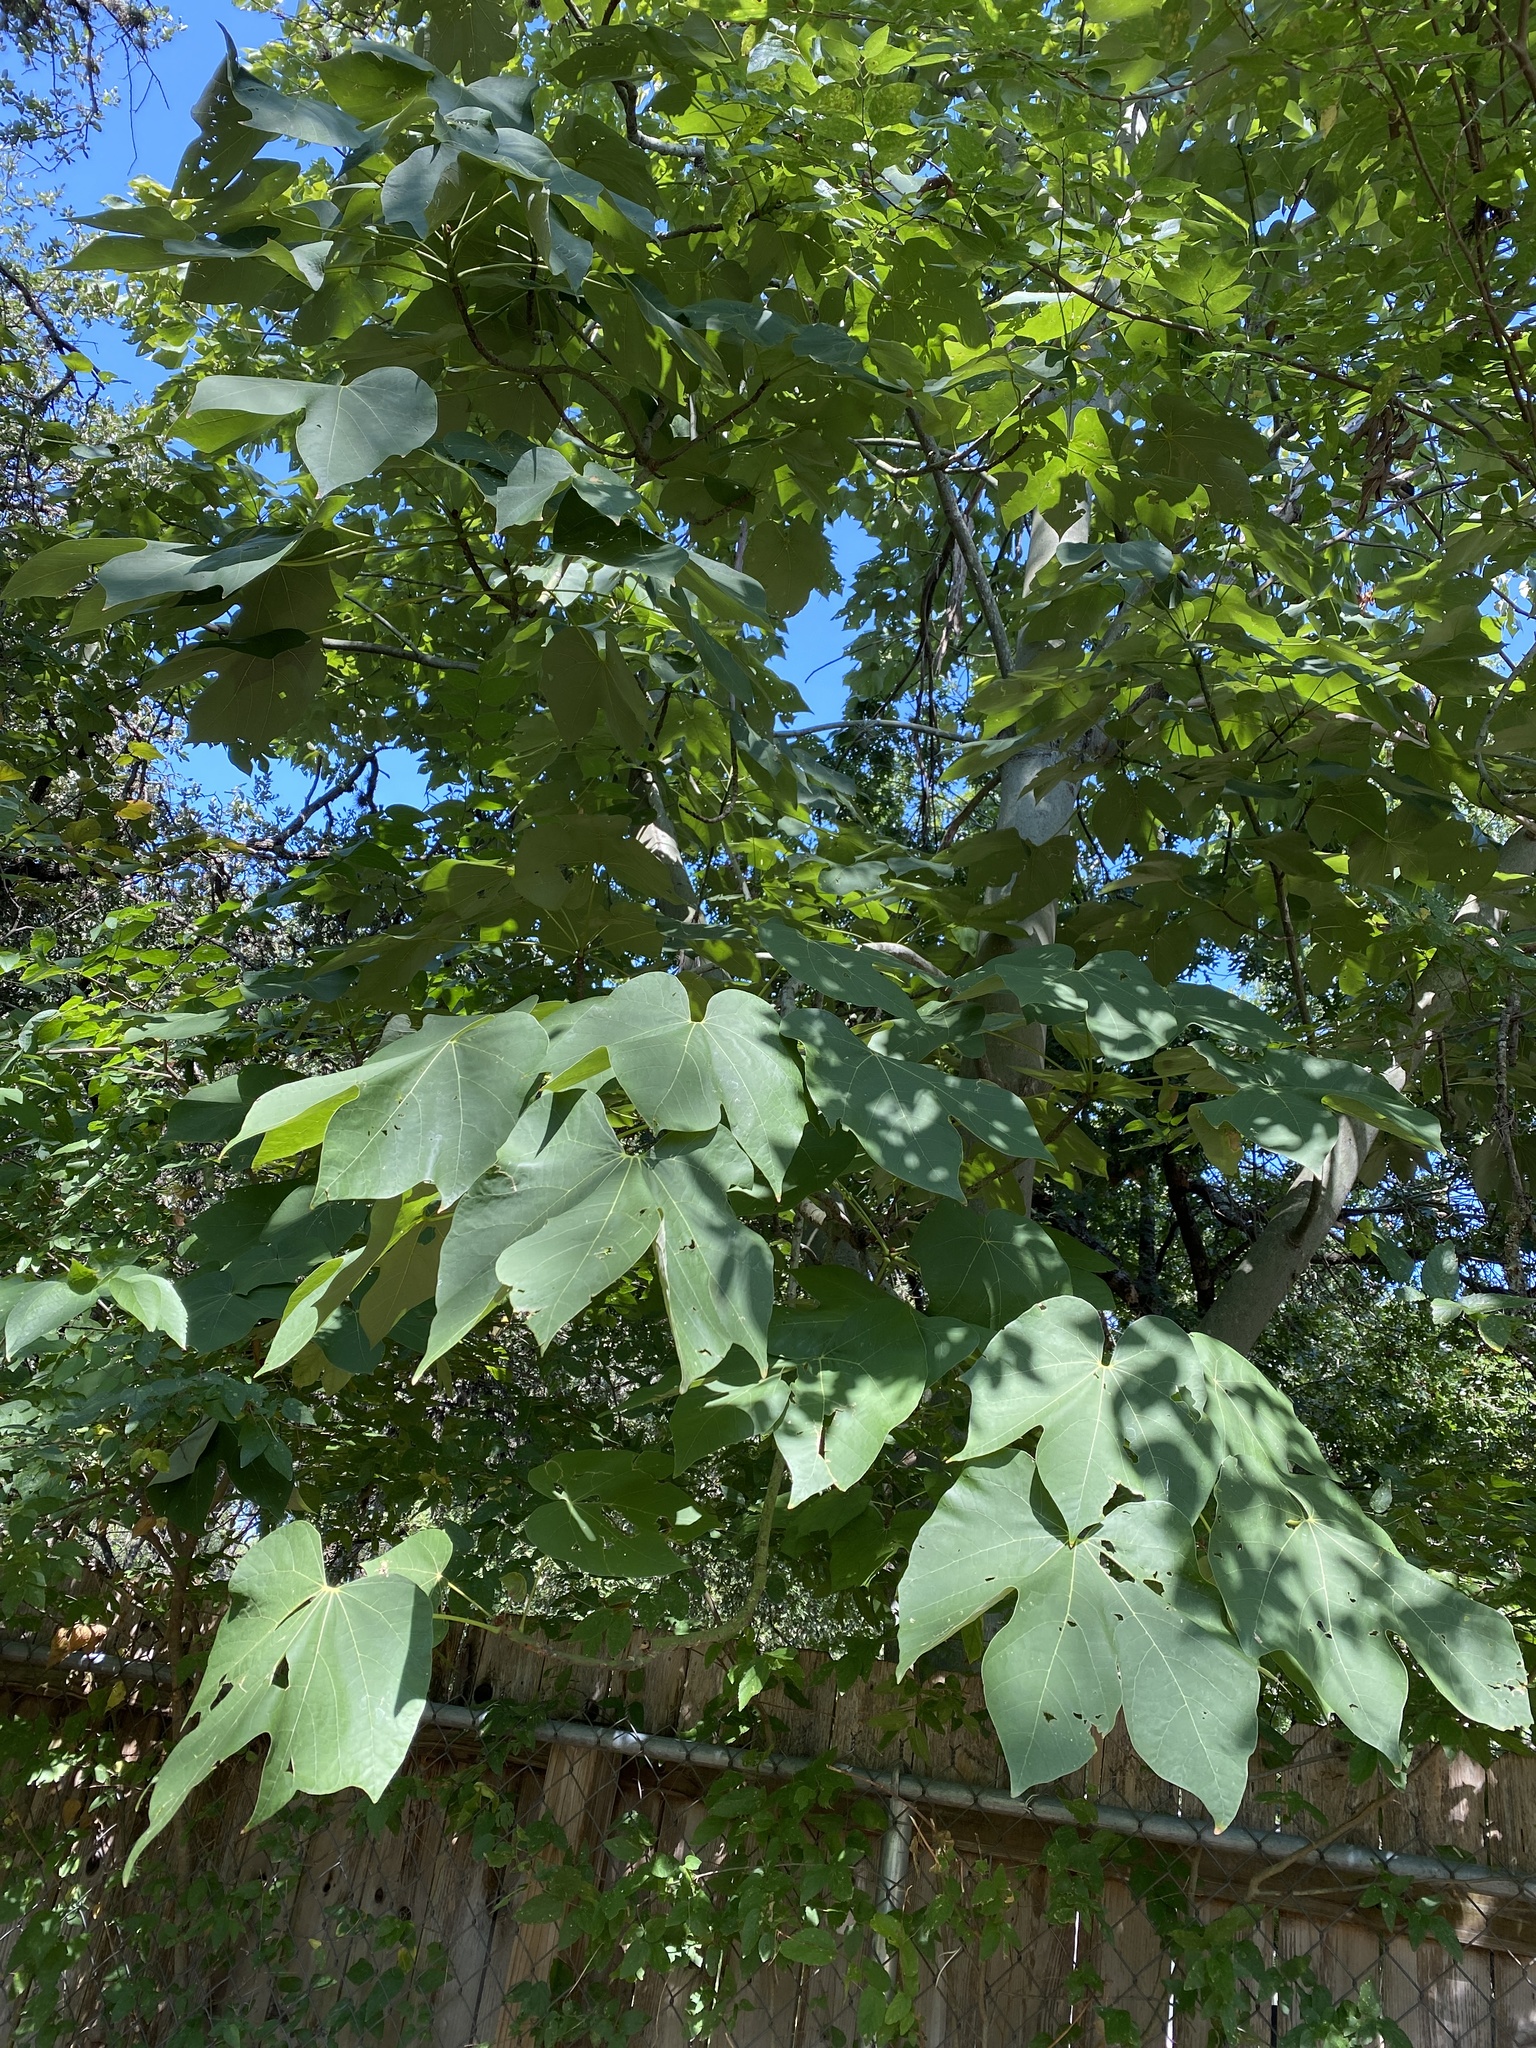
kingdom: Plantae
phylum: Tracheophyta
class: Magnoliopsida
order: Malvales
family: Malvaceae
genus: Firmiana
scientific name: Firmiana simplex
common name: Chinese parasoltree
